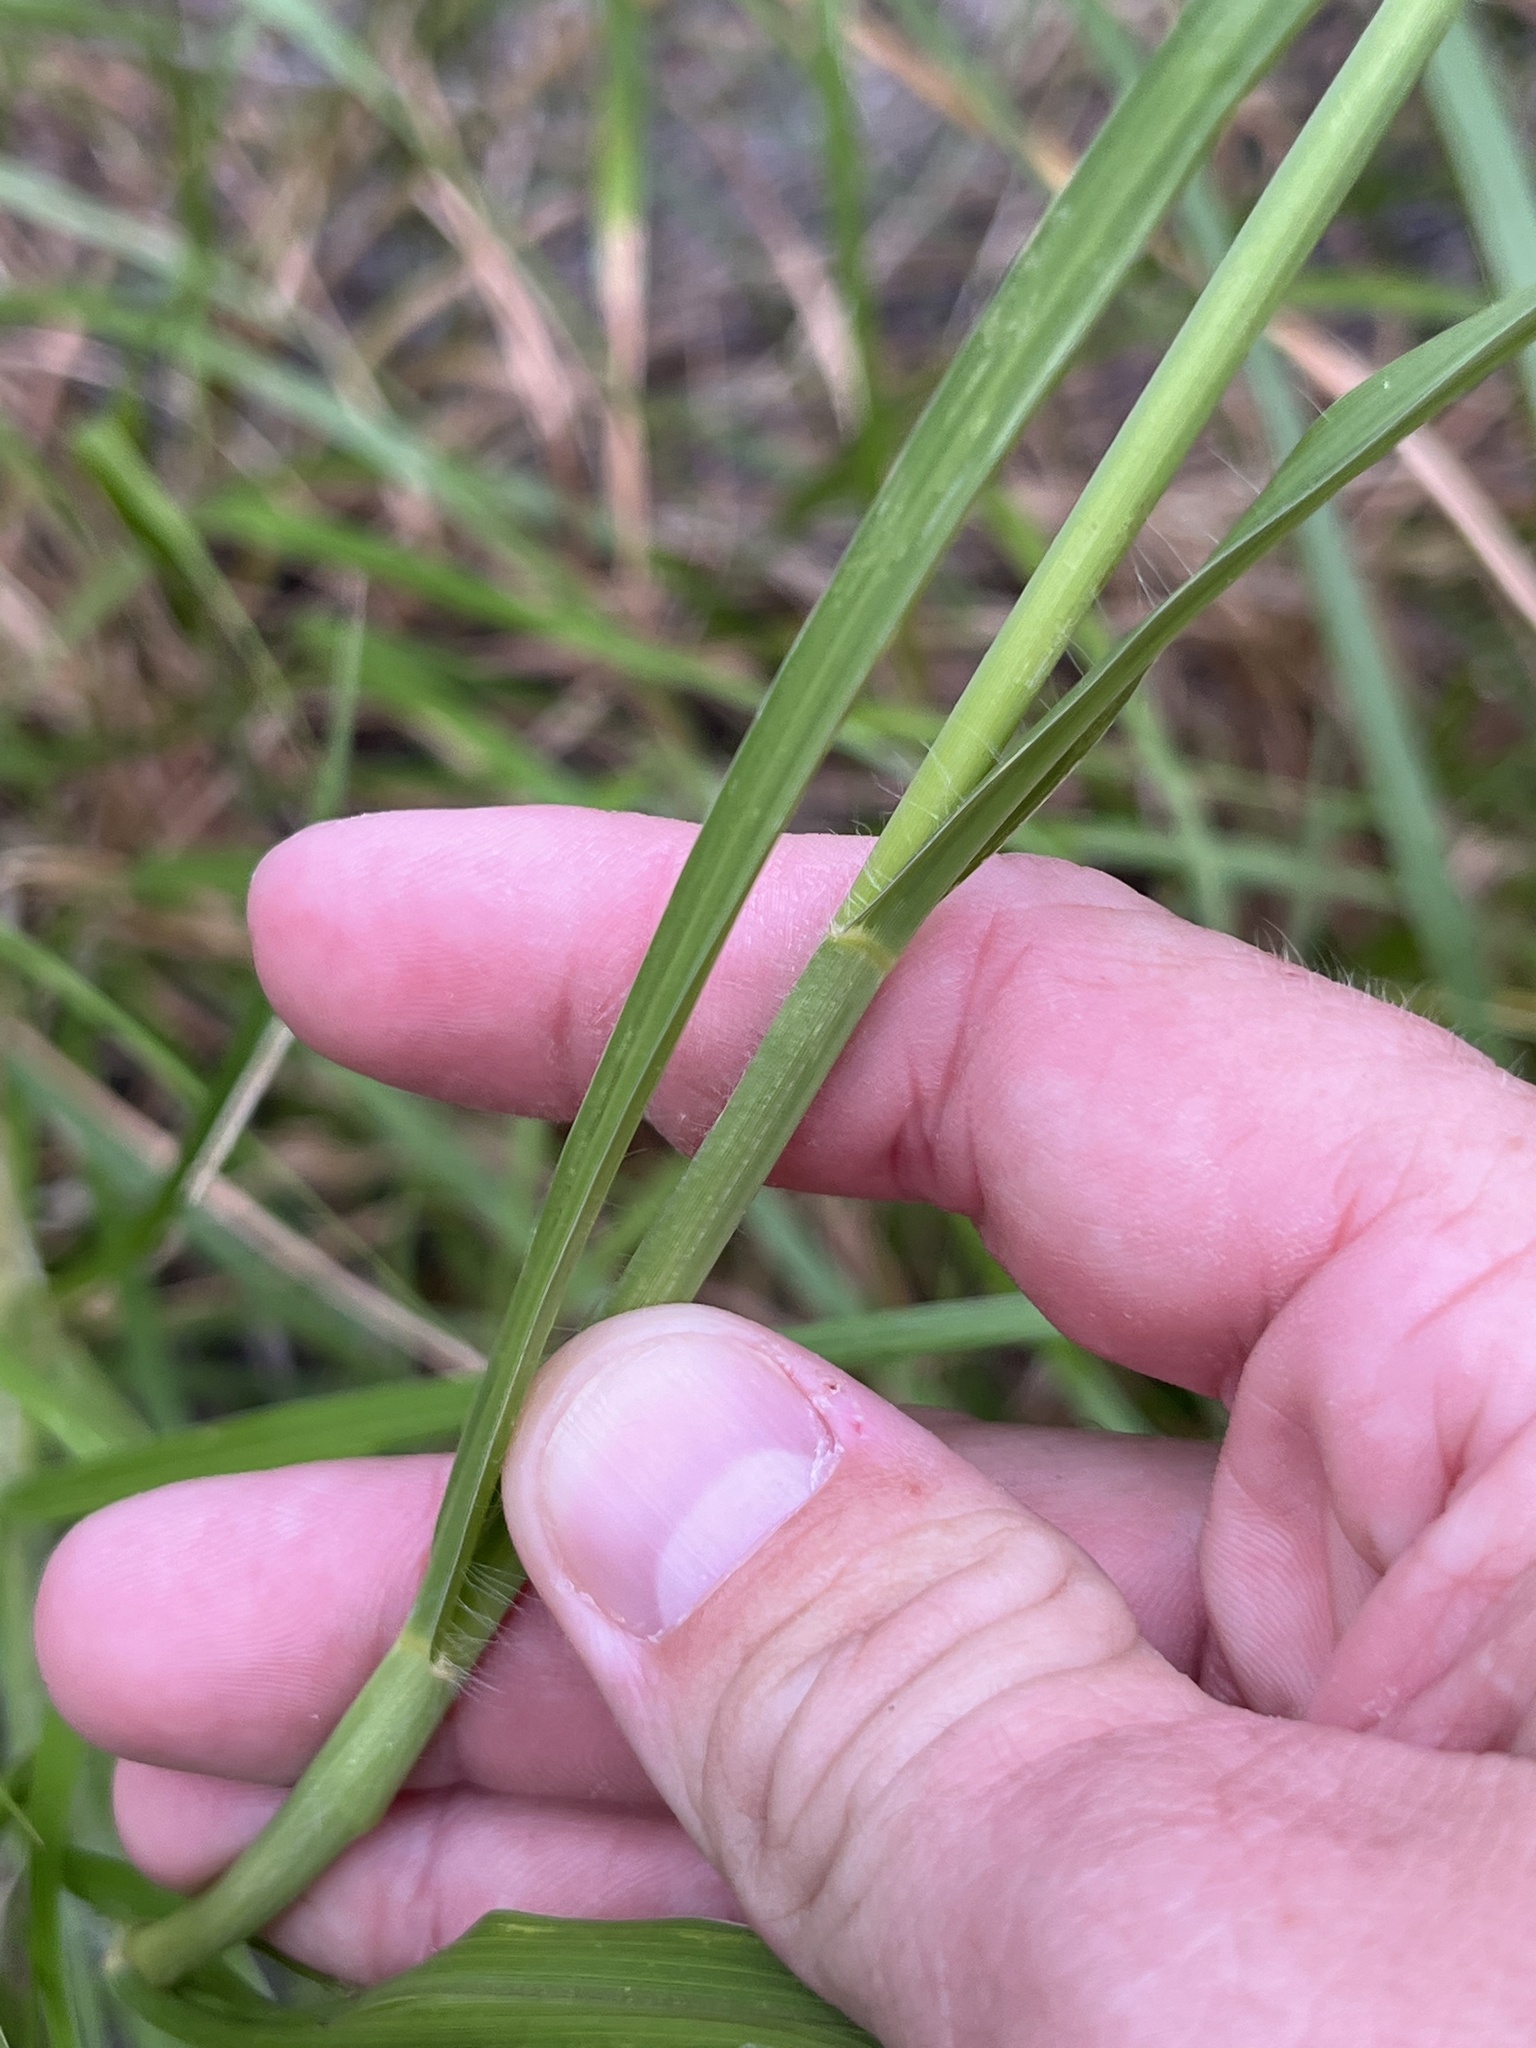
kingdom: Plantae
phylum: Tracheophyta
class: Liliopsida
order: Poales
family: Poaceae
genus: Cenchrus
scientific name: Cenchrus ciliaris
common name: Buffelgrass
